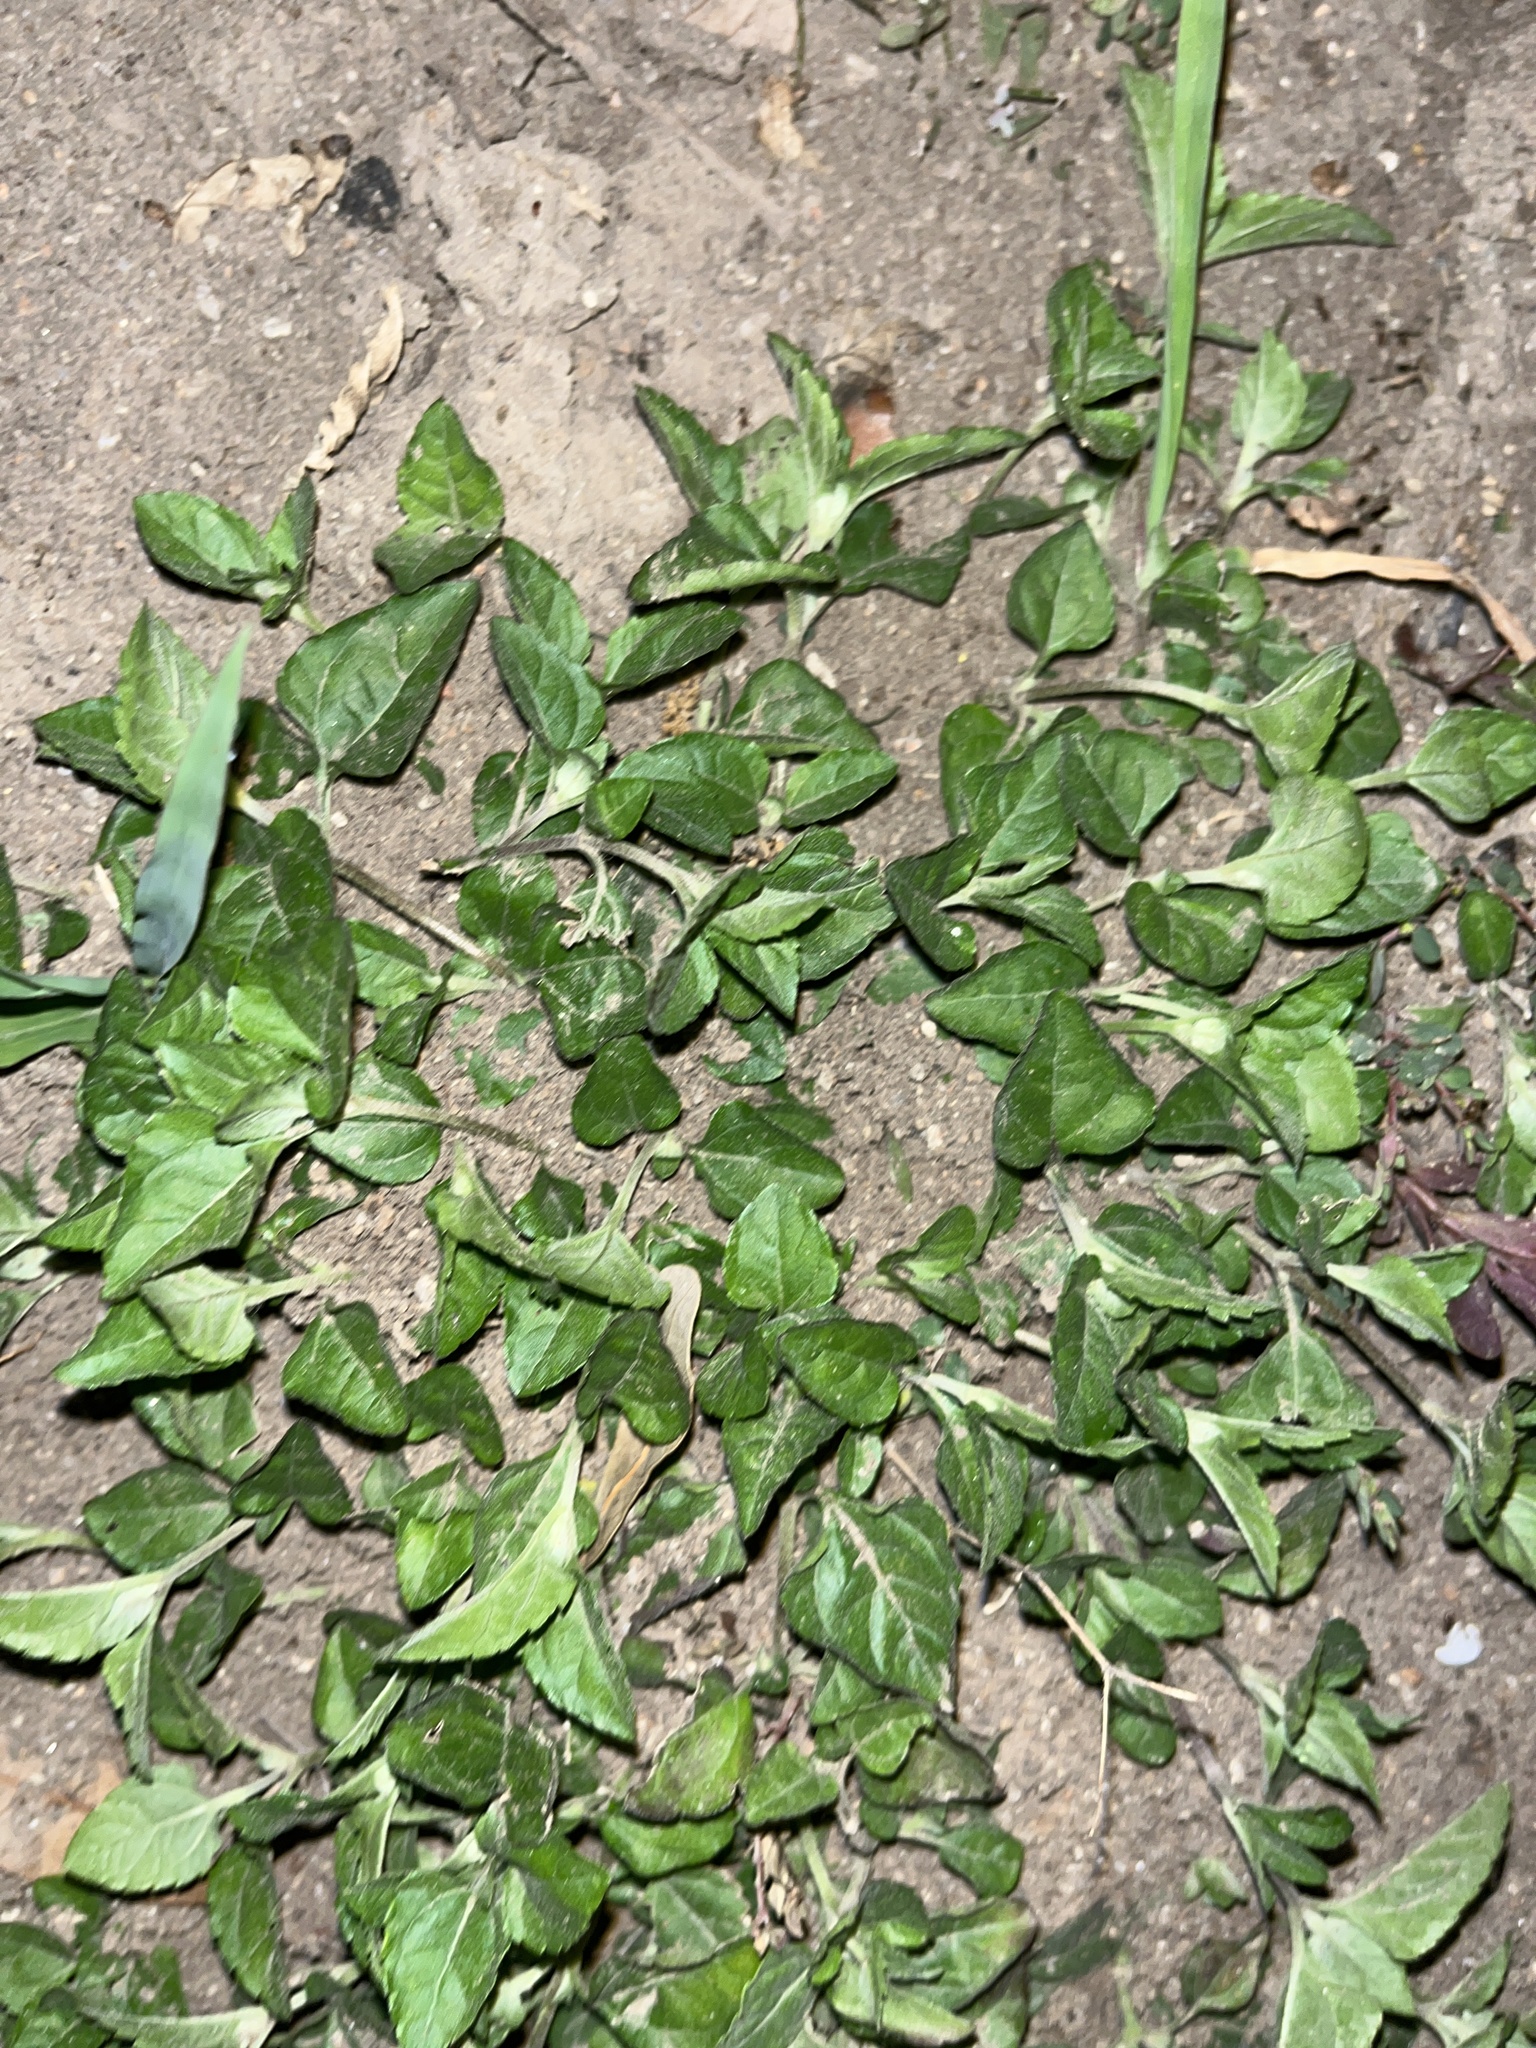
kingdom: Plantae
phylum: Tracheophyta
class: Magnoliopsida
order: Asterales
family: Asteraceae
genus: Calyptocarpus
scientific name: Calyptocarpus vialis
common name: Straggler daisy
